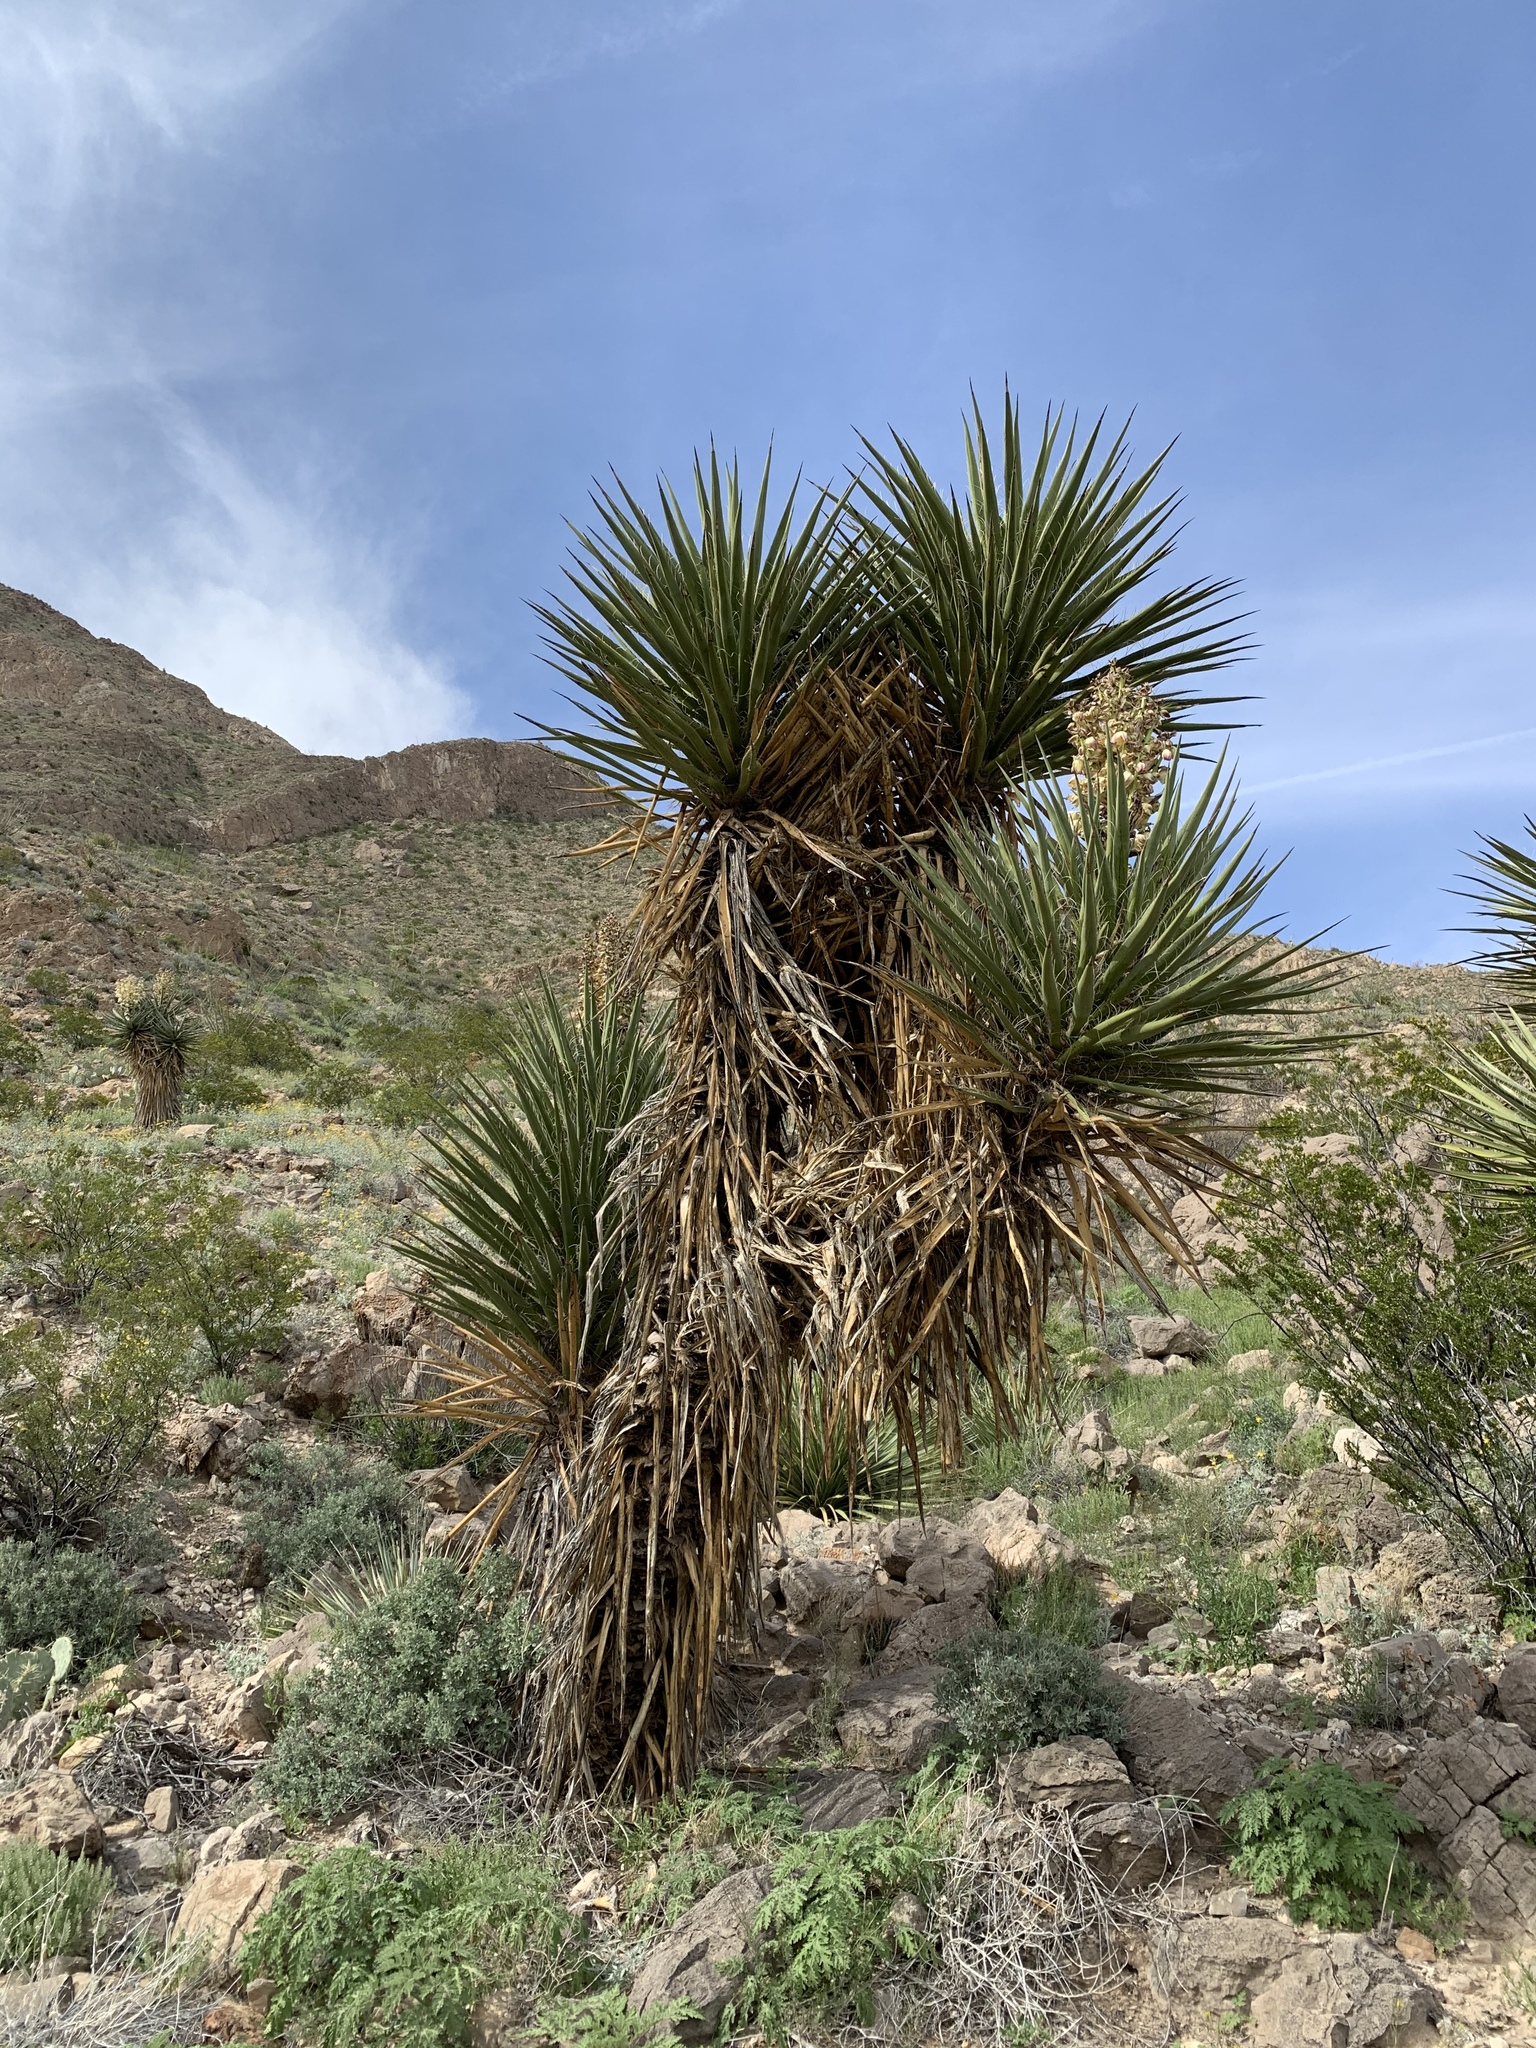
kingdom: Plantae
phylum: Tracheophyta
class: Liliopsida
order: Asparagales
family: Asparagaceae
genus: Yucca
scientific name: Yucca treculiana
